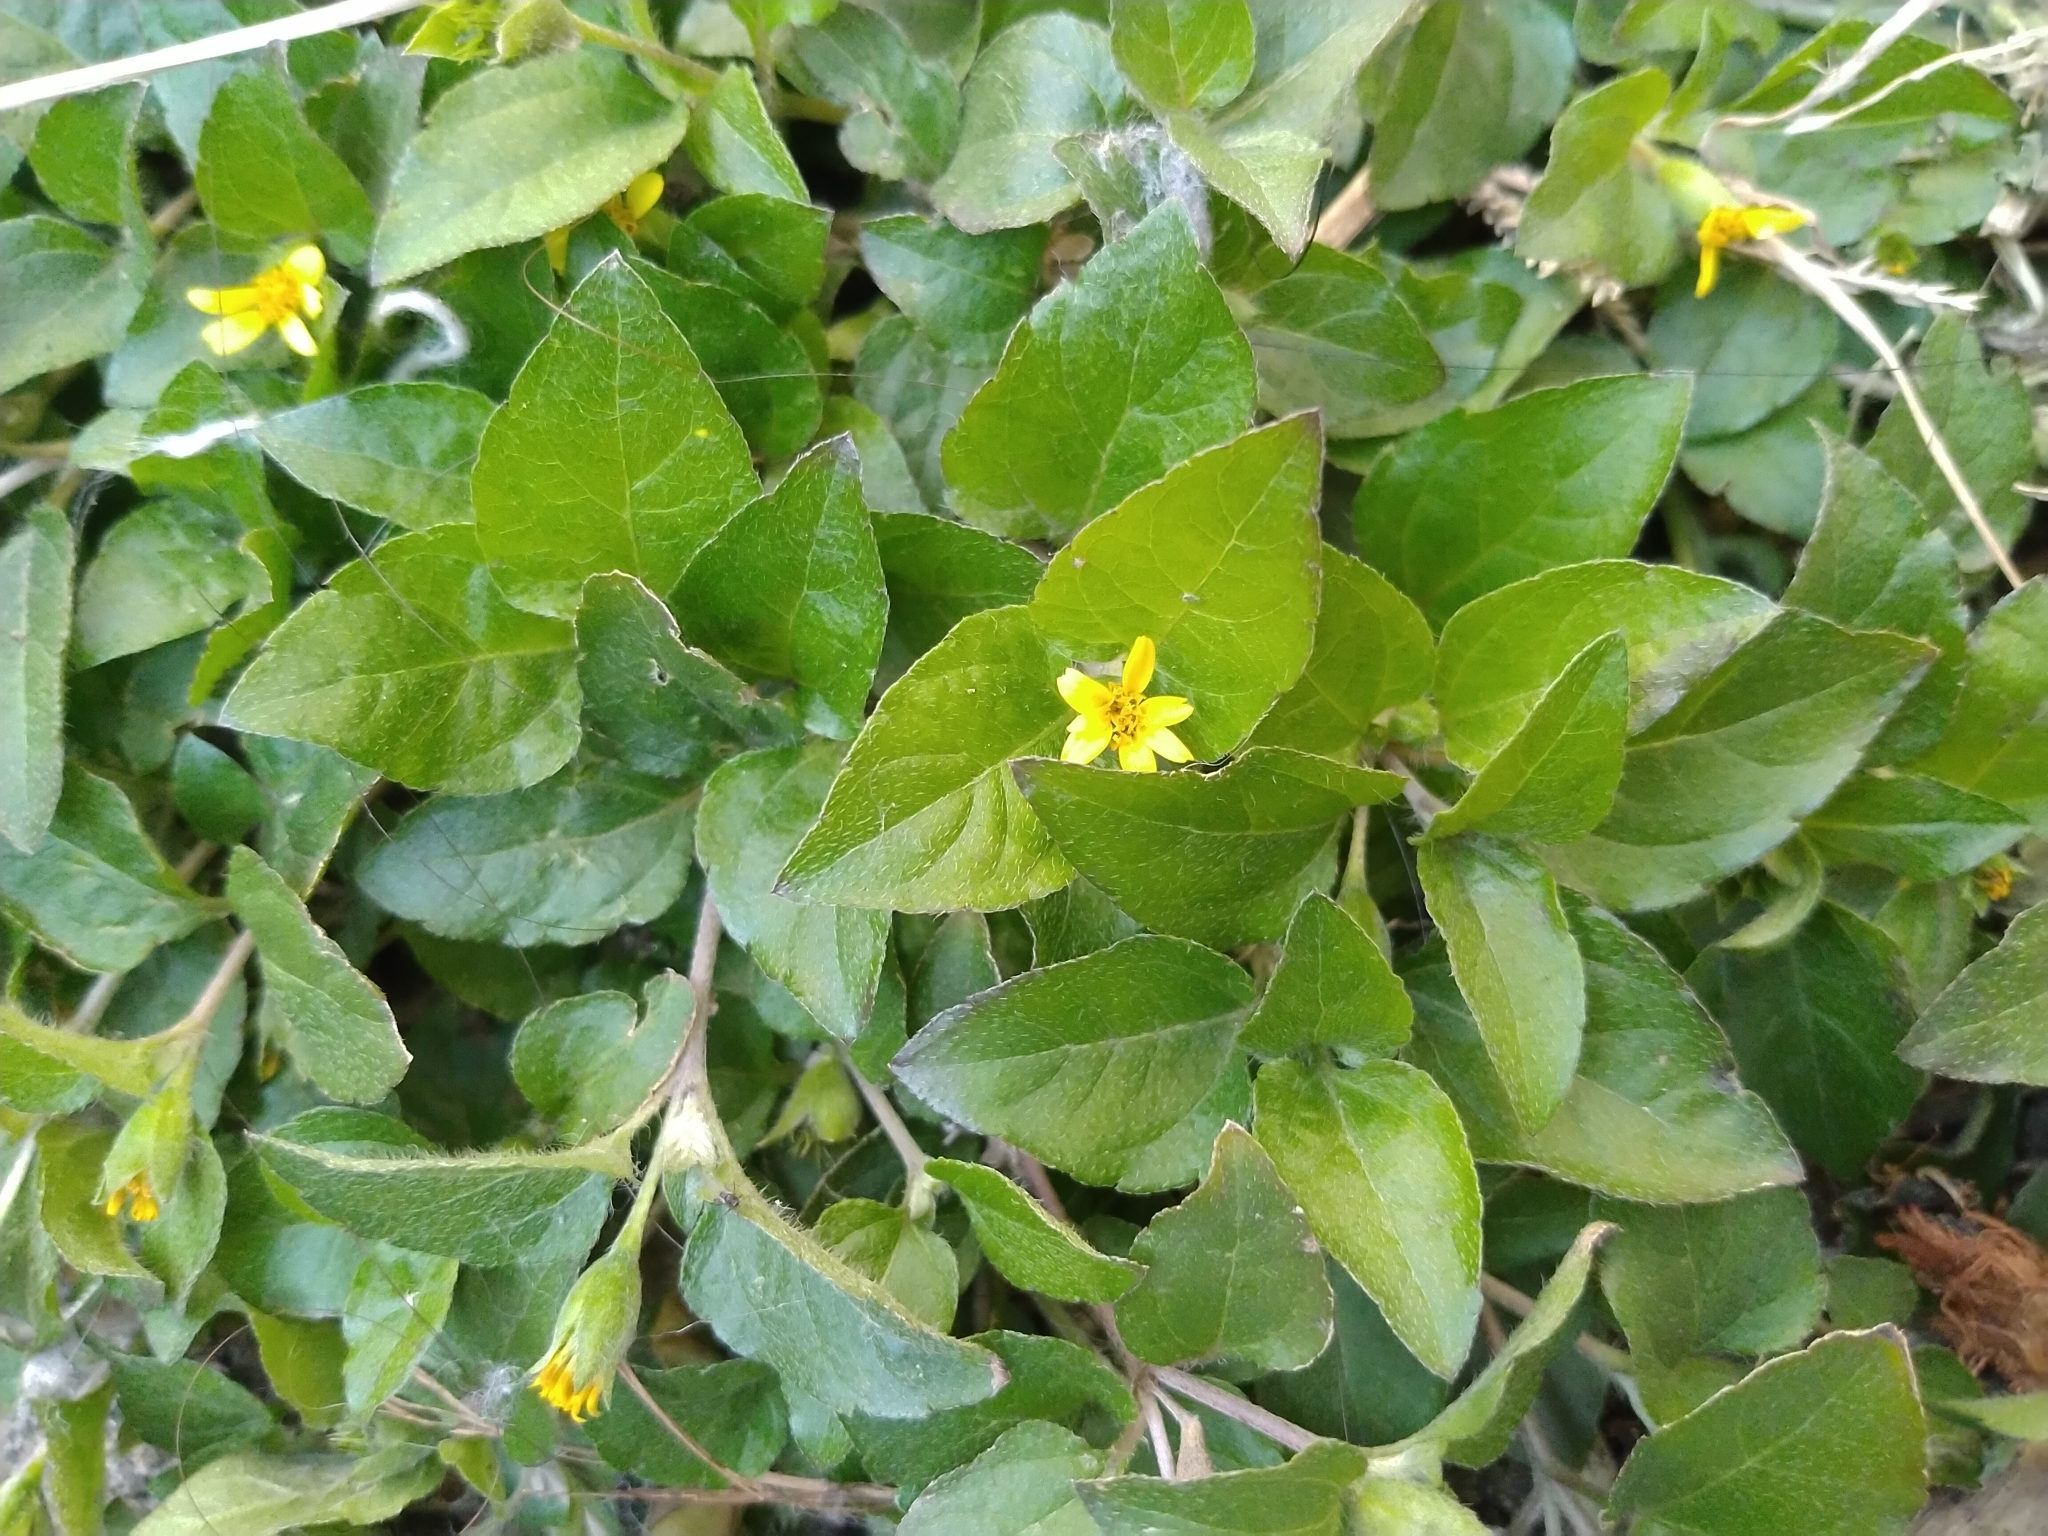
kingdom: Plantae
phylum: Tracheophyta
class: Magnoliopsida
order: Asterales
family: Asteraceae
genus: Calyptocarpus
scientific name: Calyptocarpus vialis
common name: Straggler daisy
